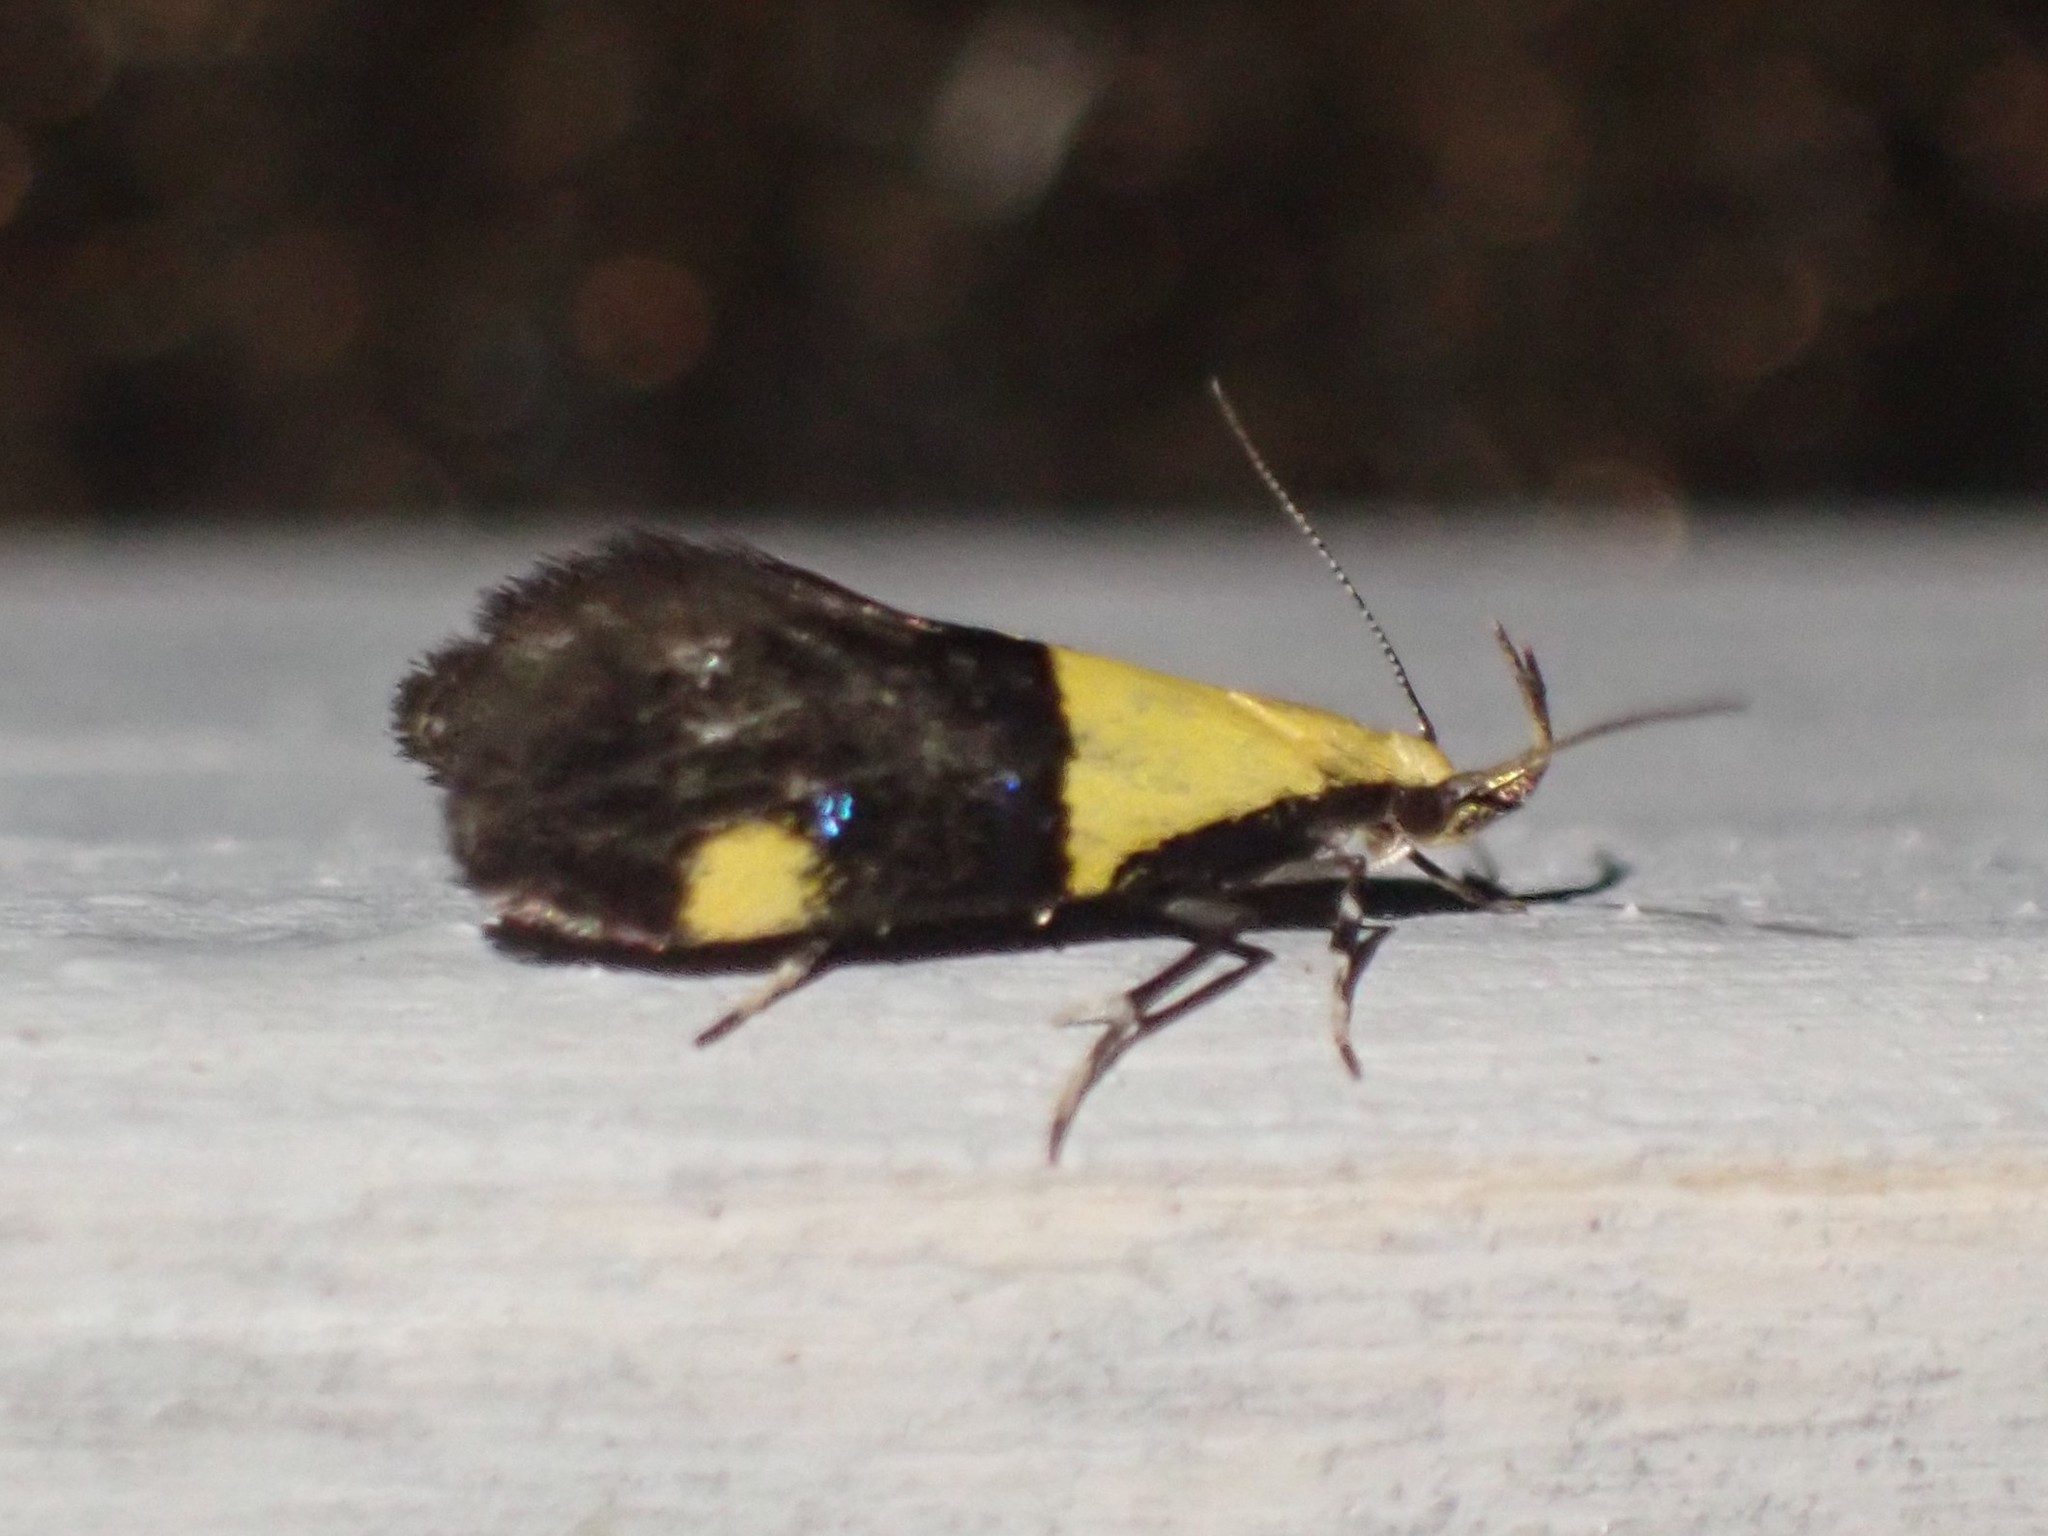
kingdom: Animalia
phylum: Arthropoda
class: Insecta
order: Lepidoptera
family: Oecophoridae
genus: Oecophora
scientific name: Oecophora bractella
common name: Gold-base tubic
